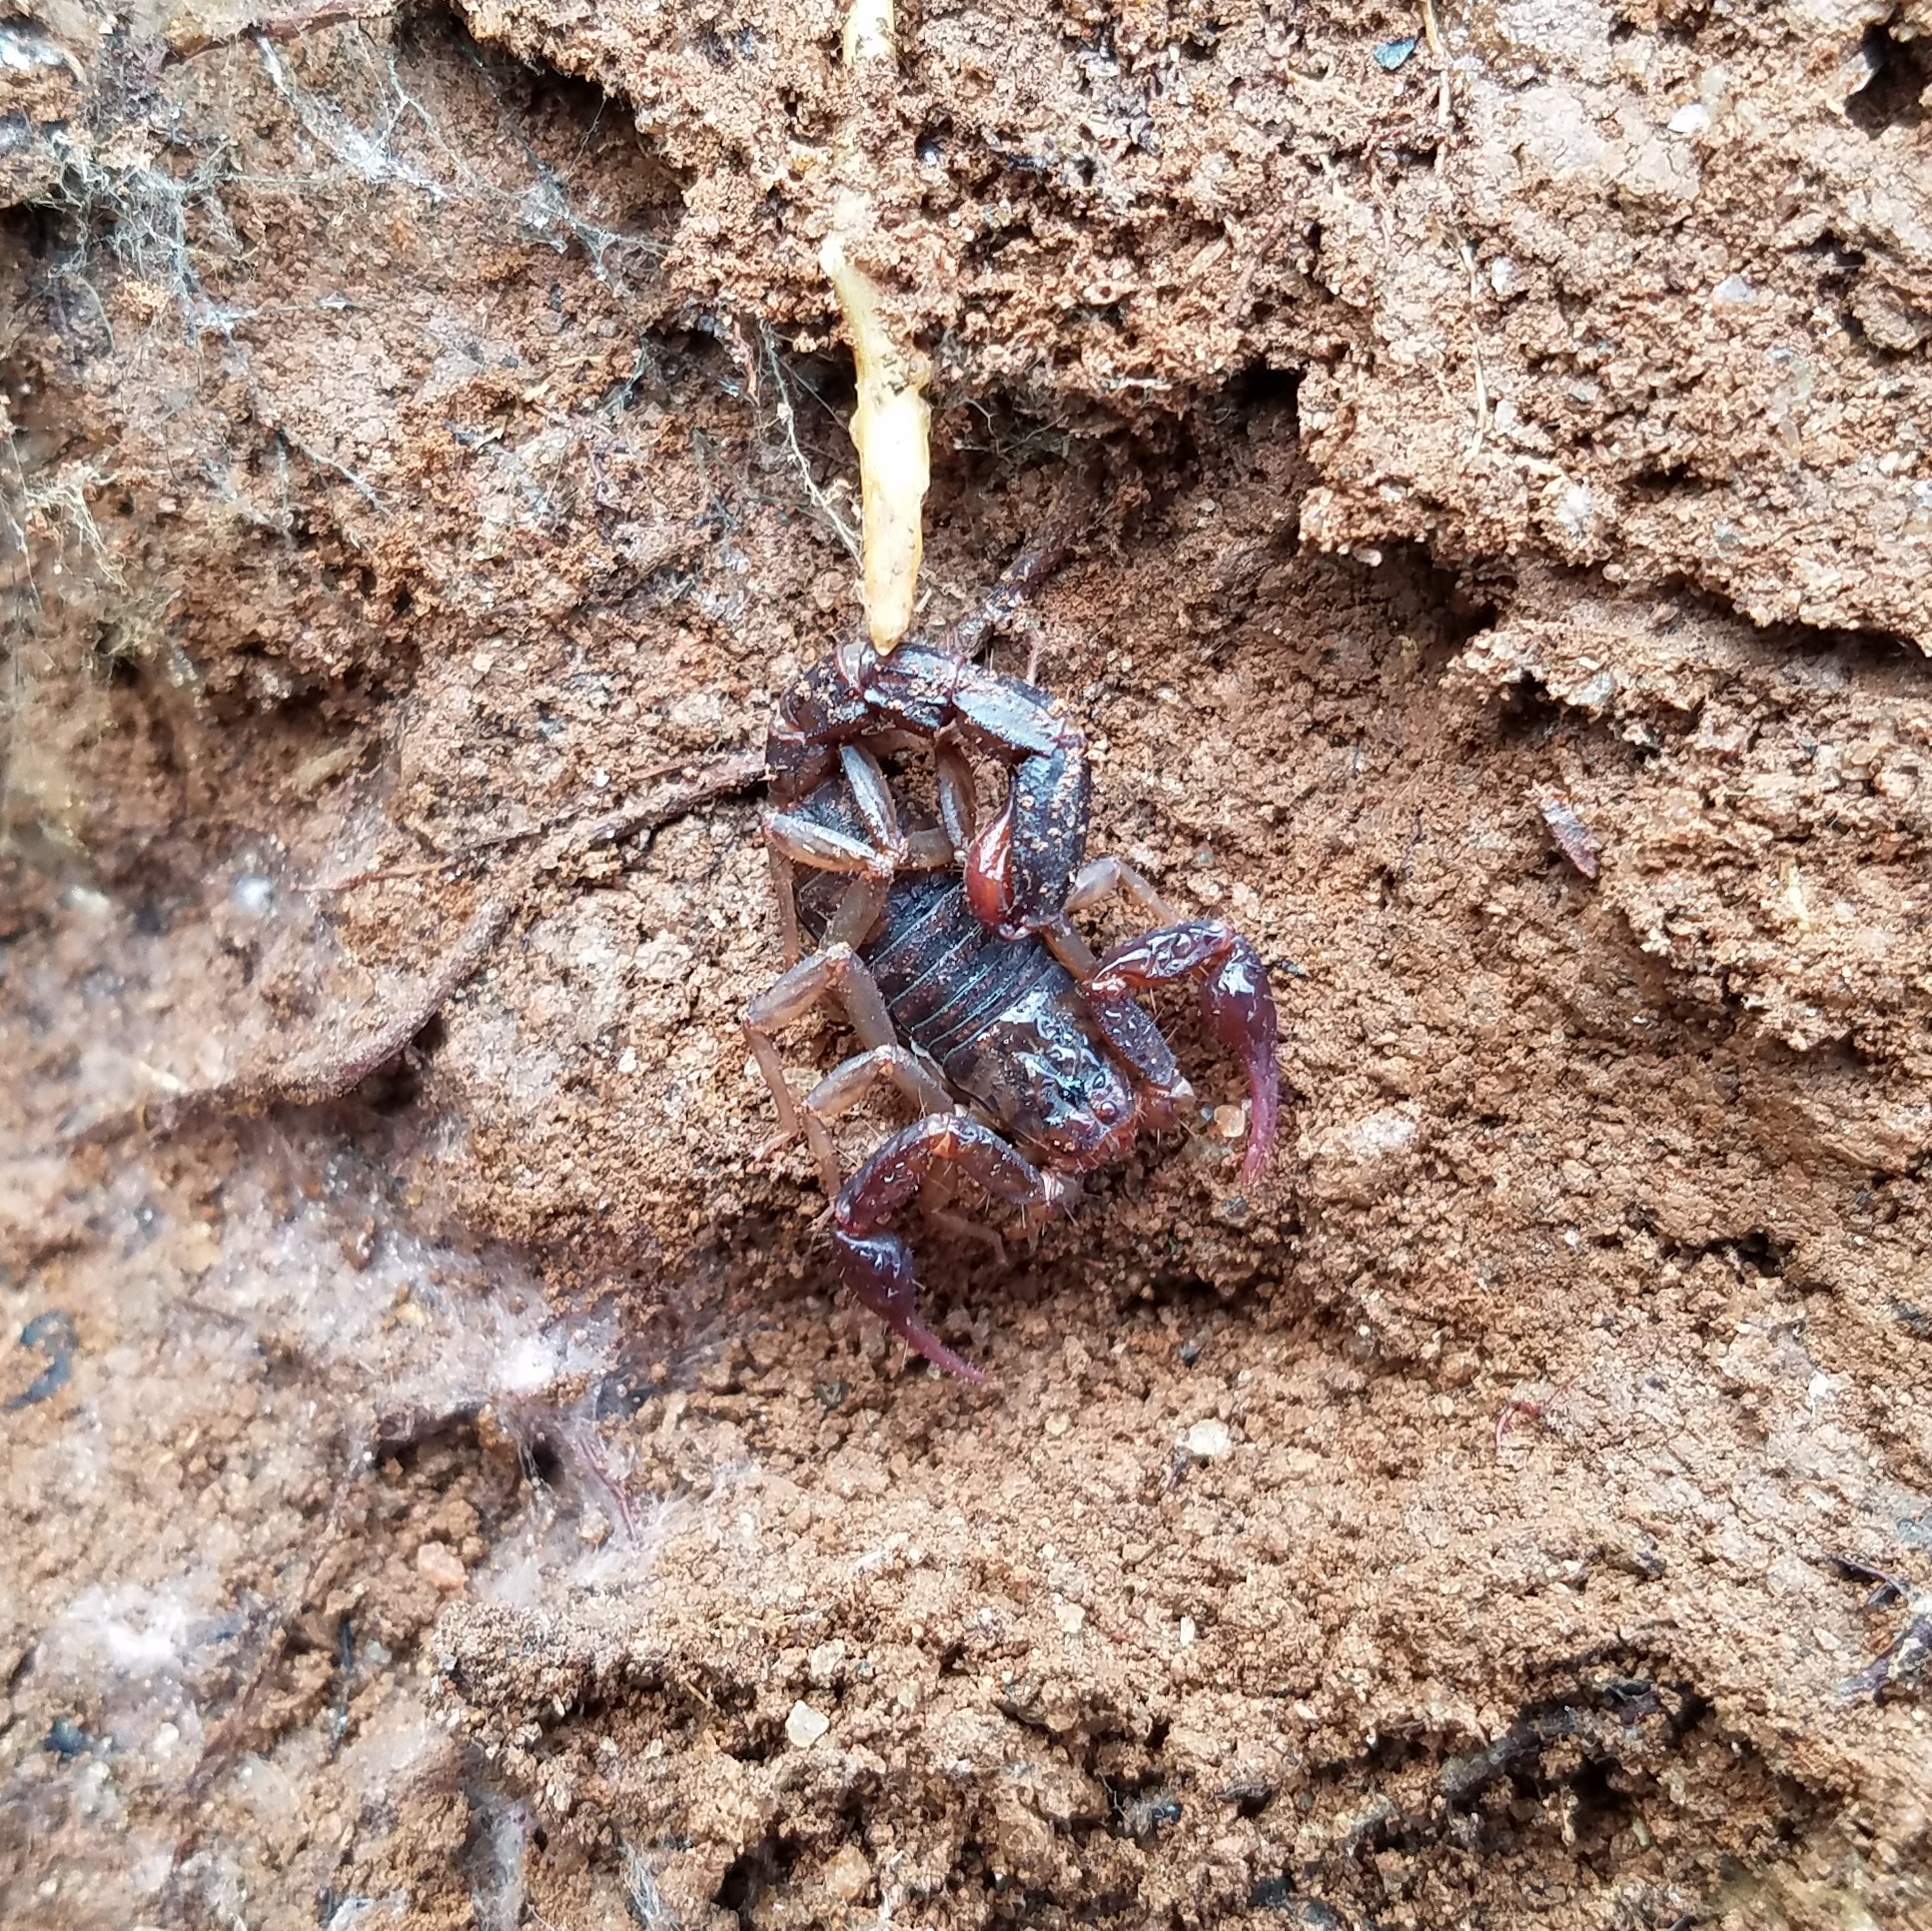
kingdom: Animalia
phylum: Arthropoda
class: Arachnida
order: Scorpiones
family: Vaejovidae
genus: Vaejovis
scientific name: Vaejovis carolinianus
